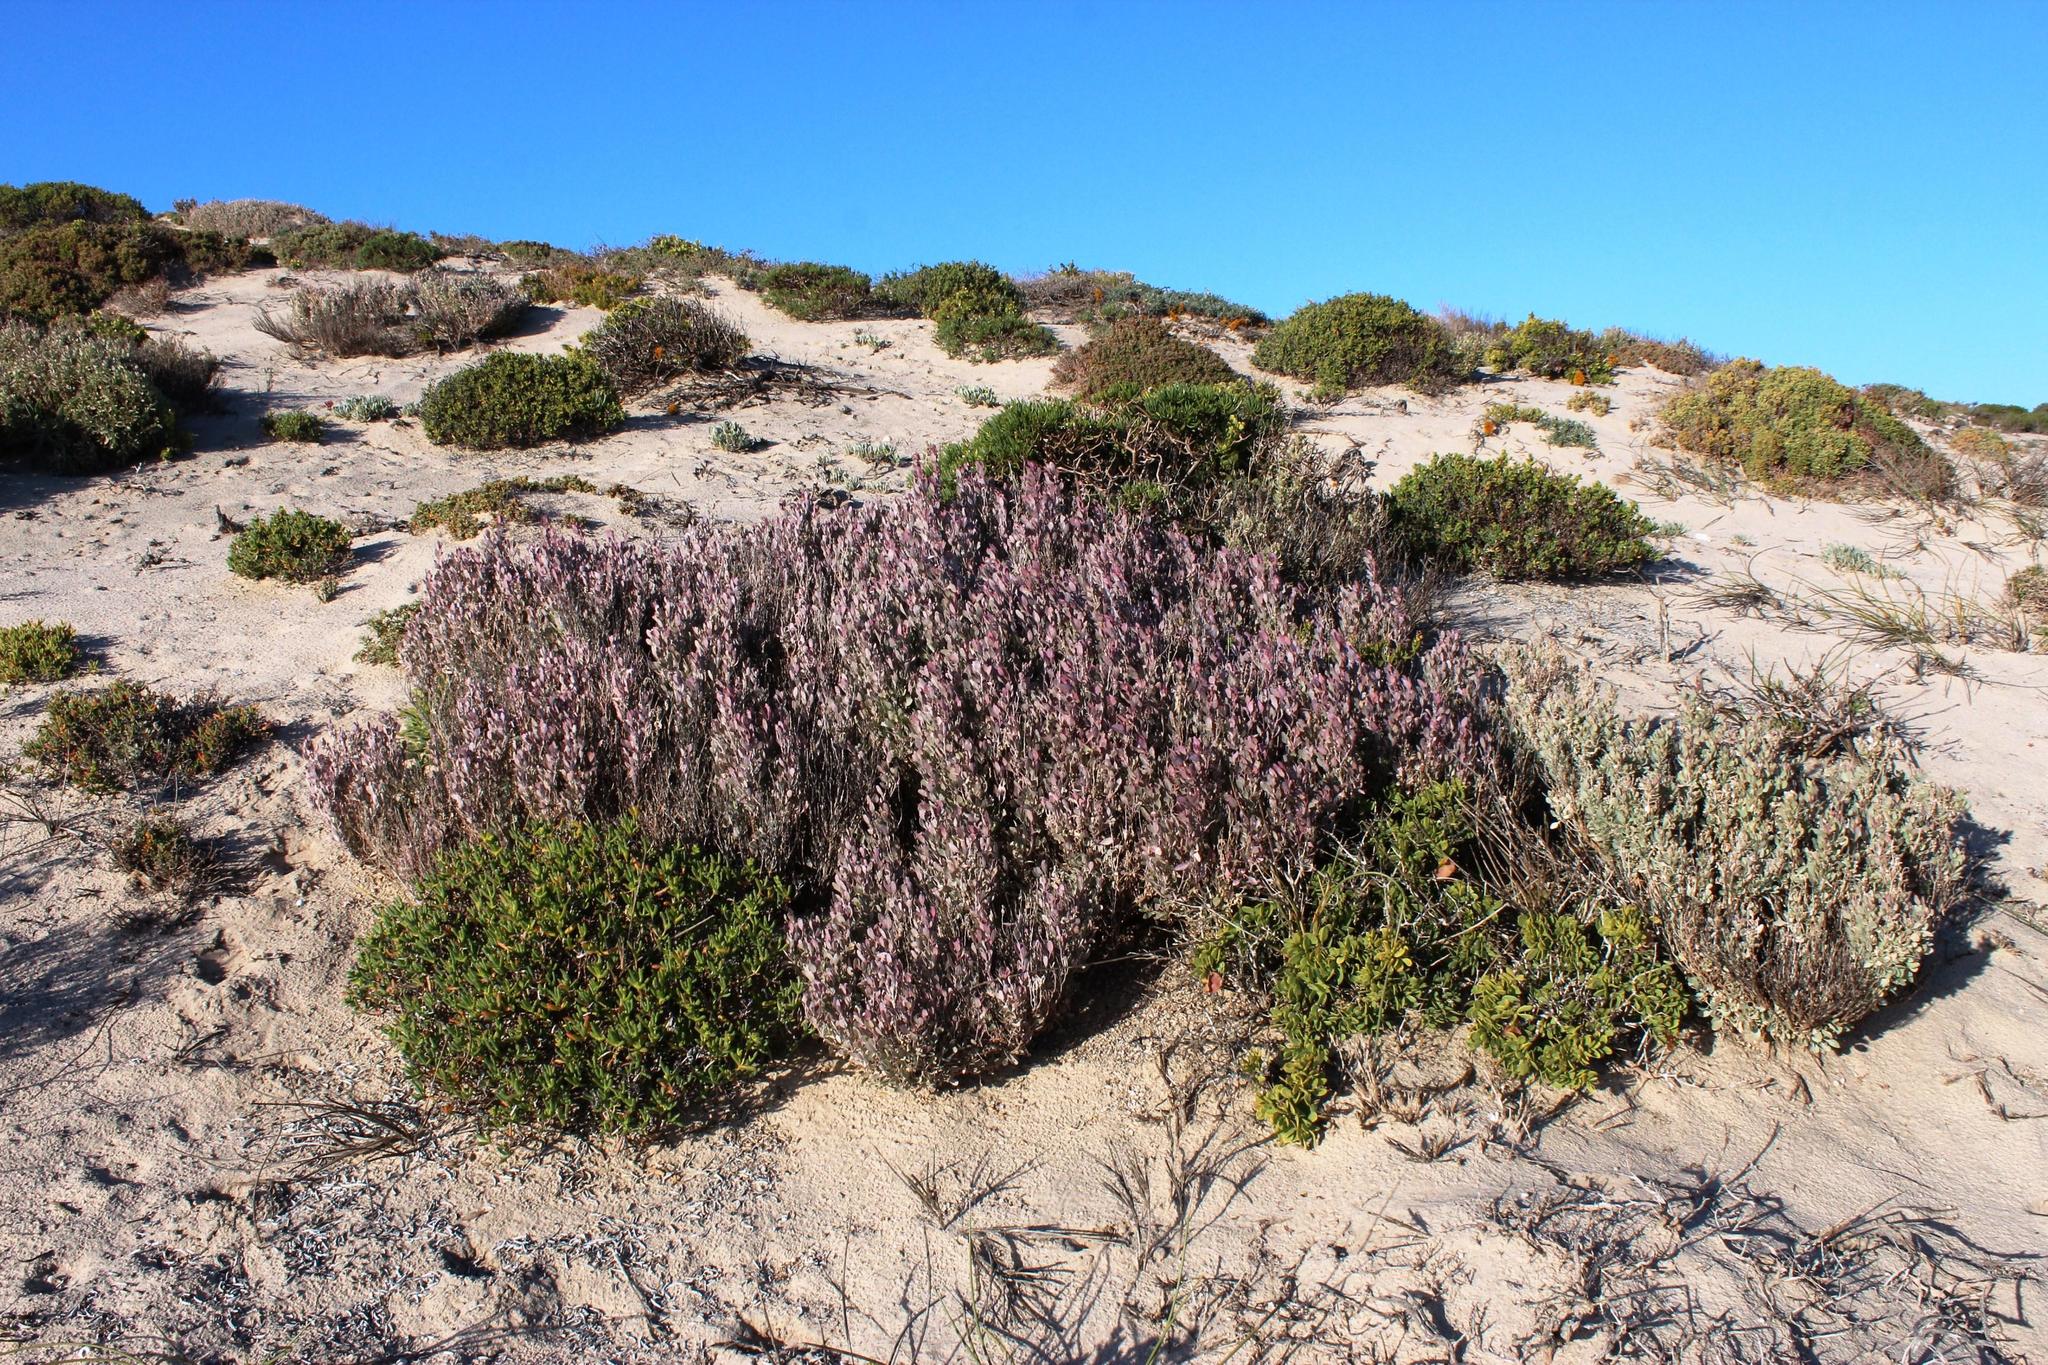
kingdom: Plantae
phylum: Tracheophyta
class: Magnoliopsida
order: Caryophyllales
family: Amaranthaceae
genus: Atriplex
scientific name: Atriplex vestita
